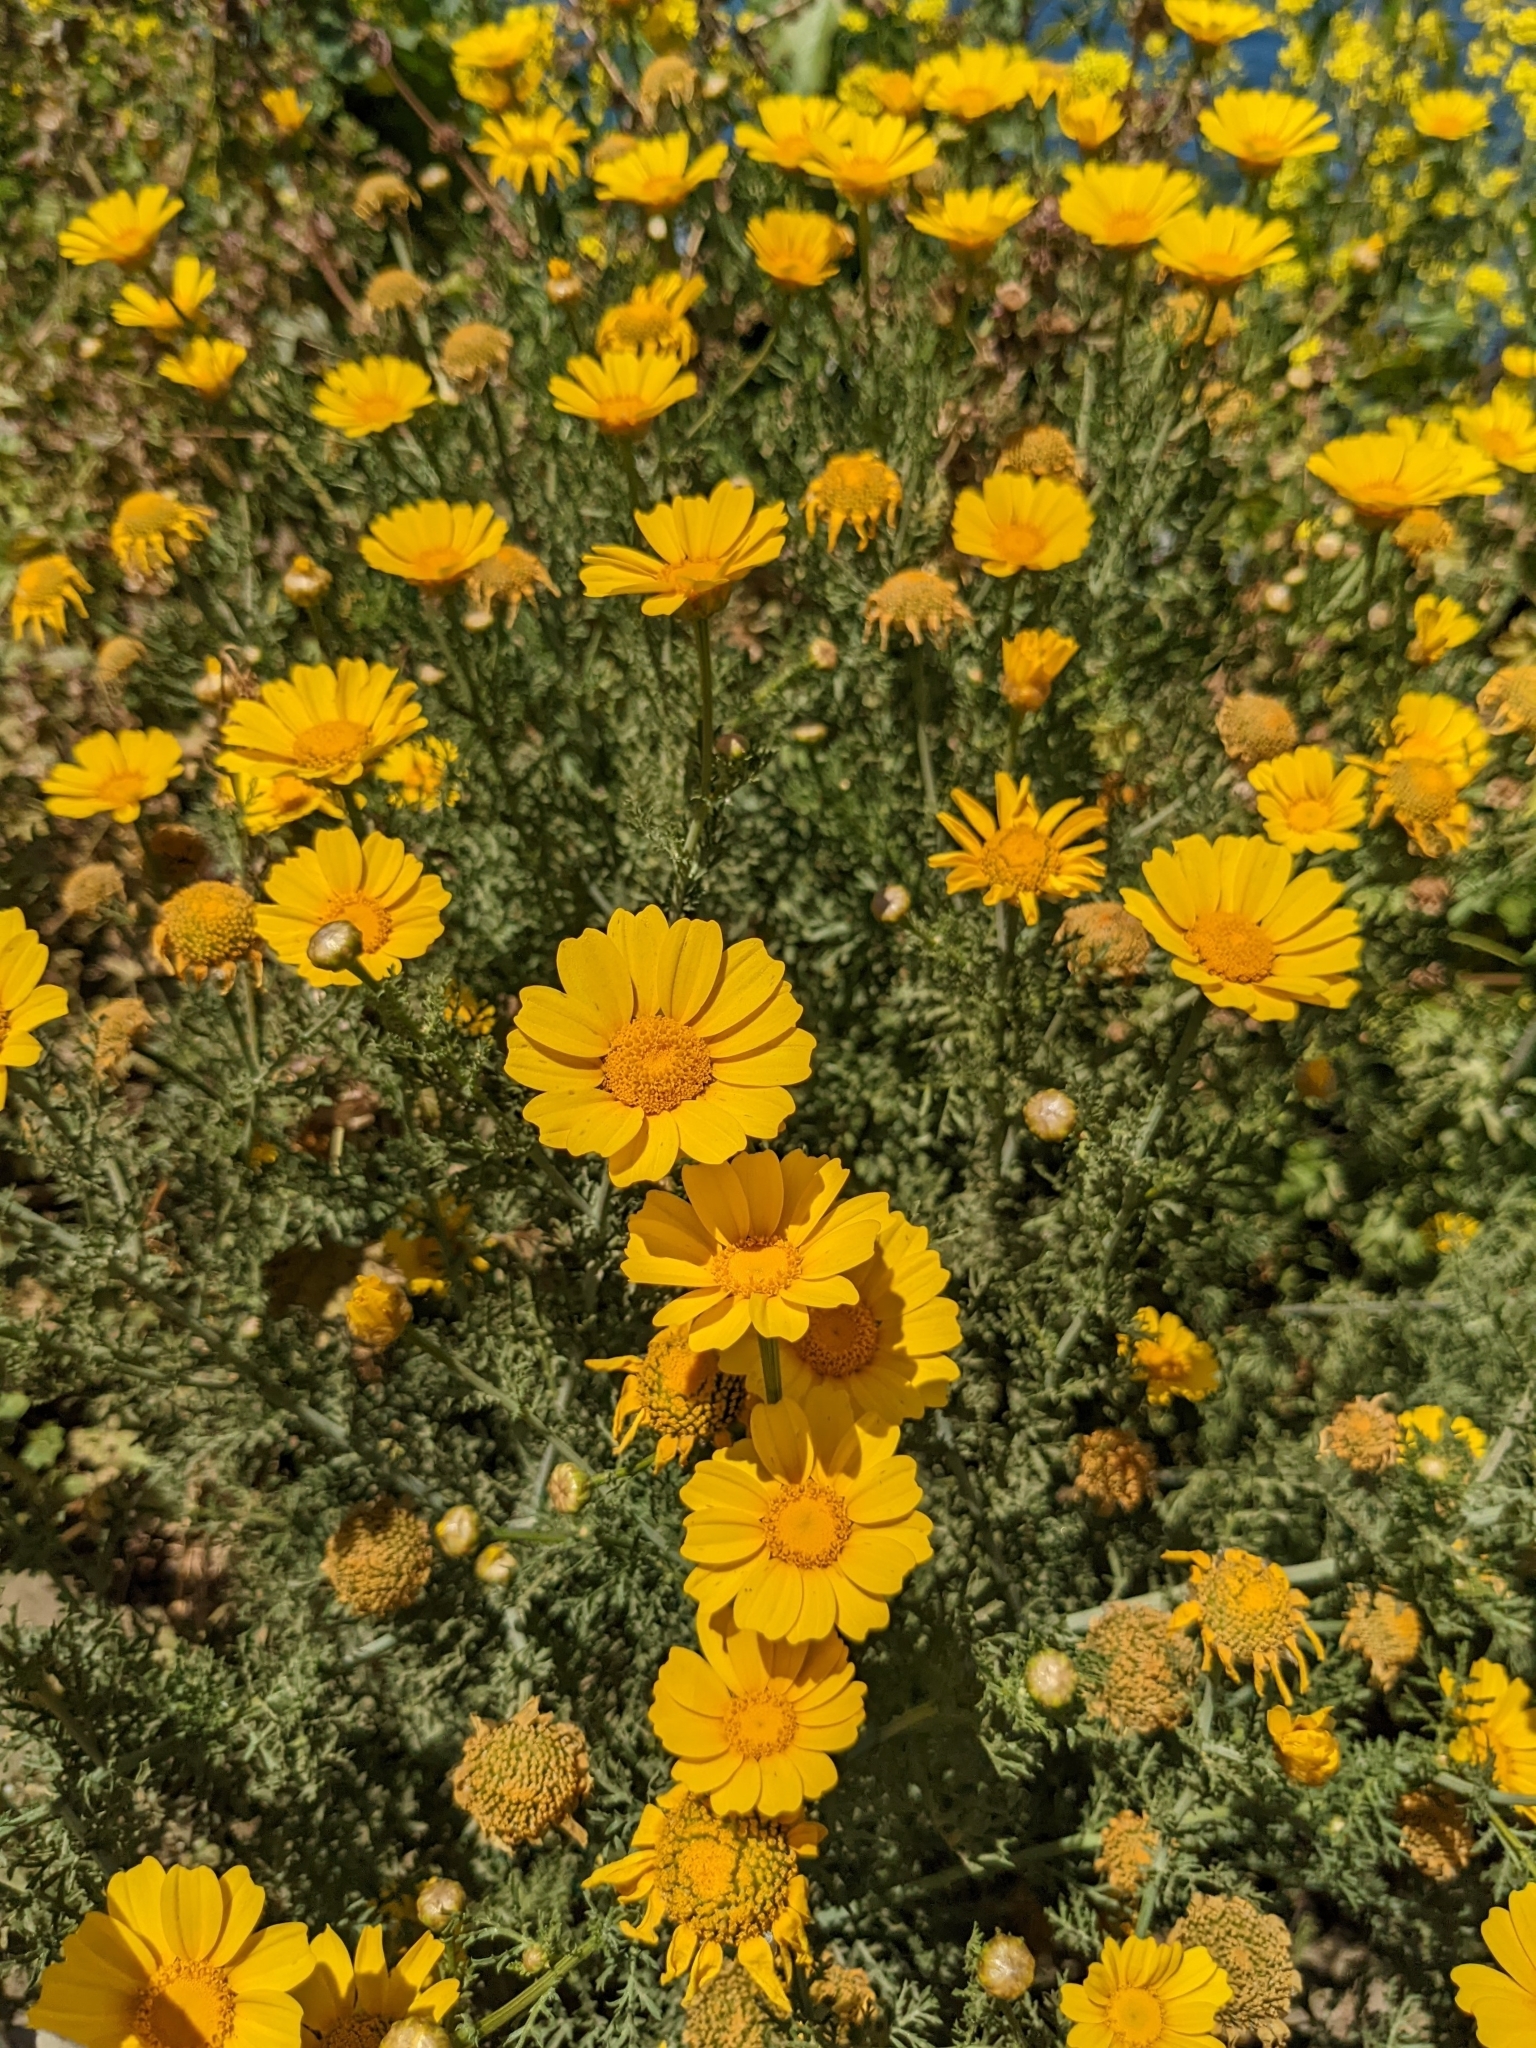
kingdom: Plantae
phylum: Tracheophyta
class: Magnoliopsida
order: Asterales
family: Asteraceae
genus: Glebionis
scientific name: Glebionis coronaria
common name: Crowndaisy
